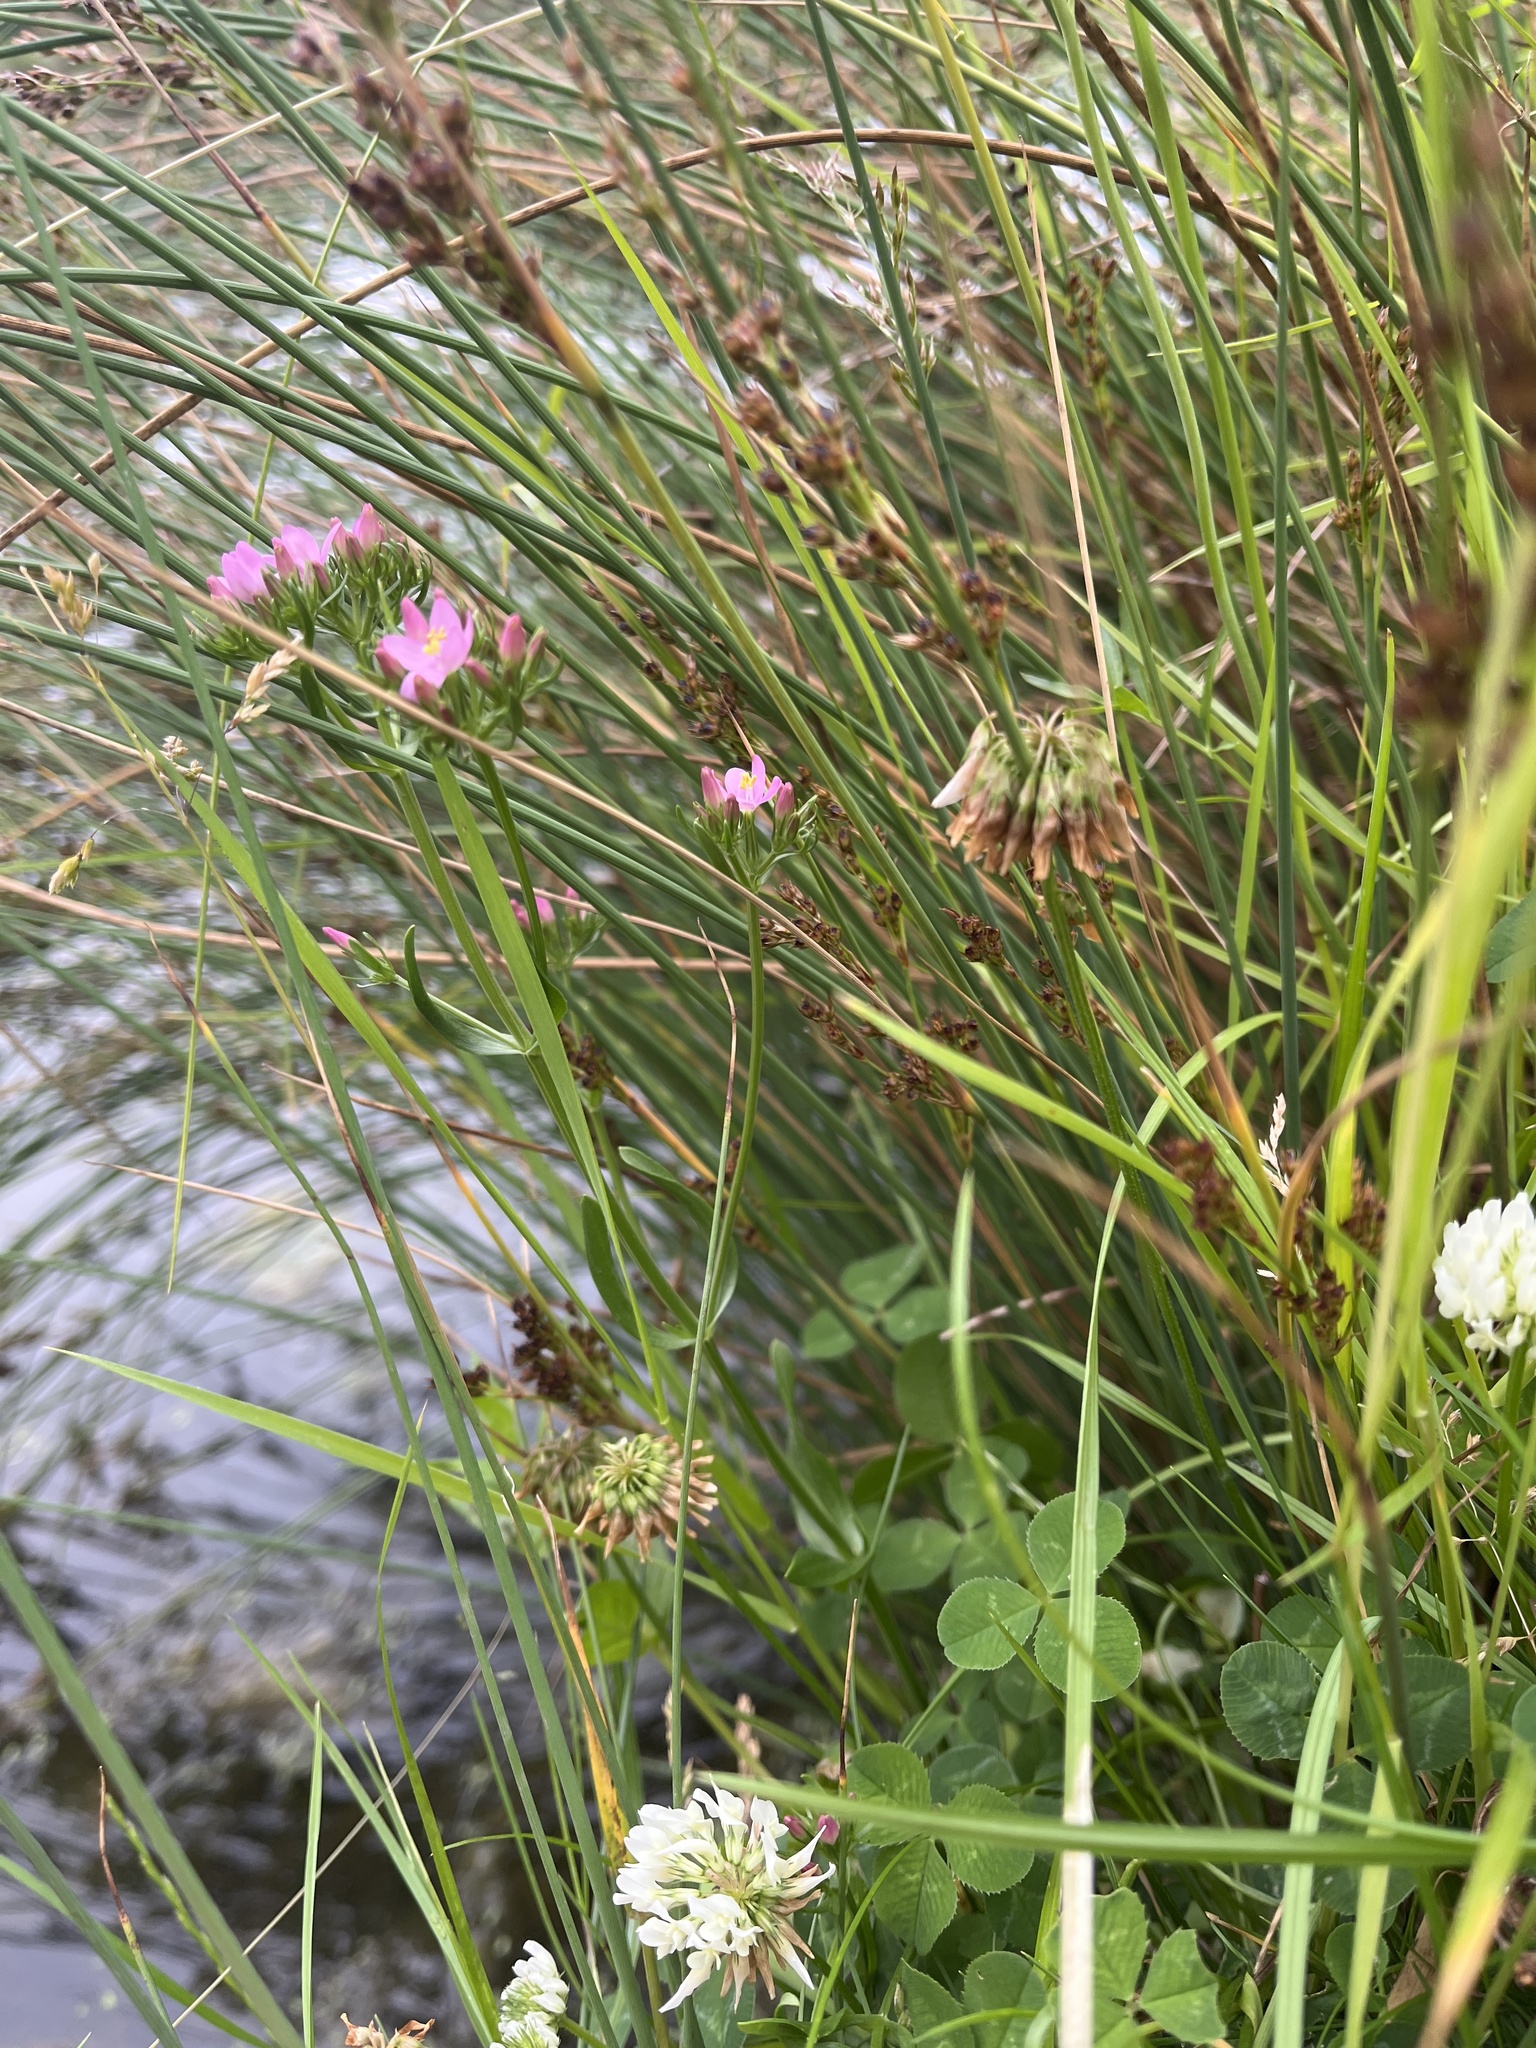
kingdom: Plantae
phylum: Tracheophyta
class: Magnoliopsida
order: Gentianales
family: Gentianaceae
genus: Centaurium
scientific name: Centaurium erythraea
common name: Common centaury
